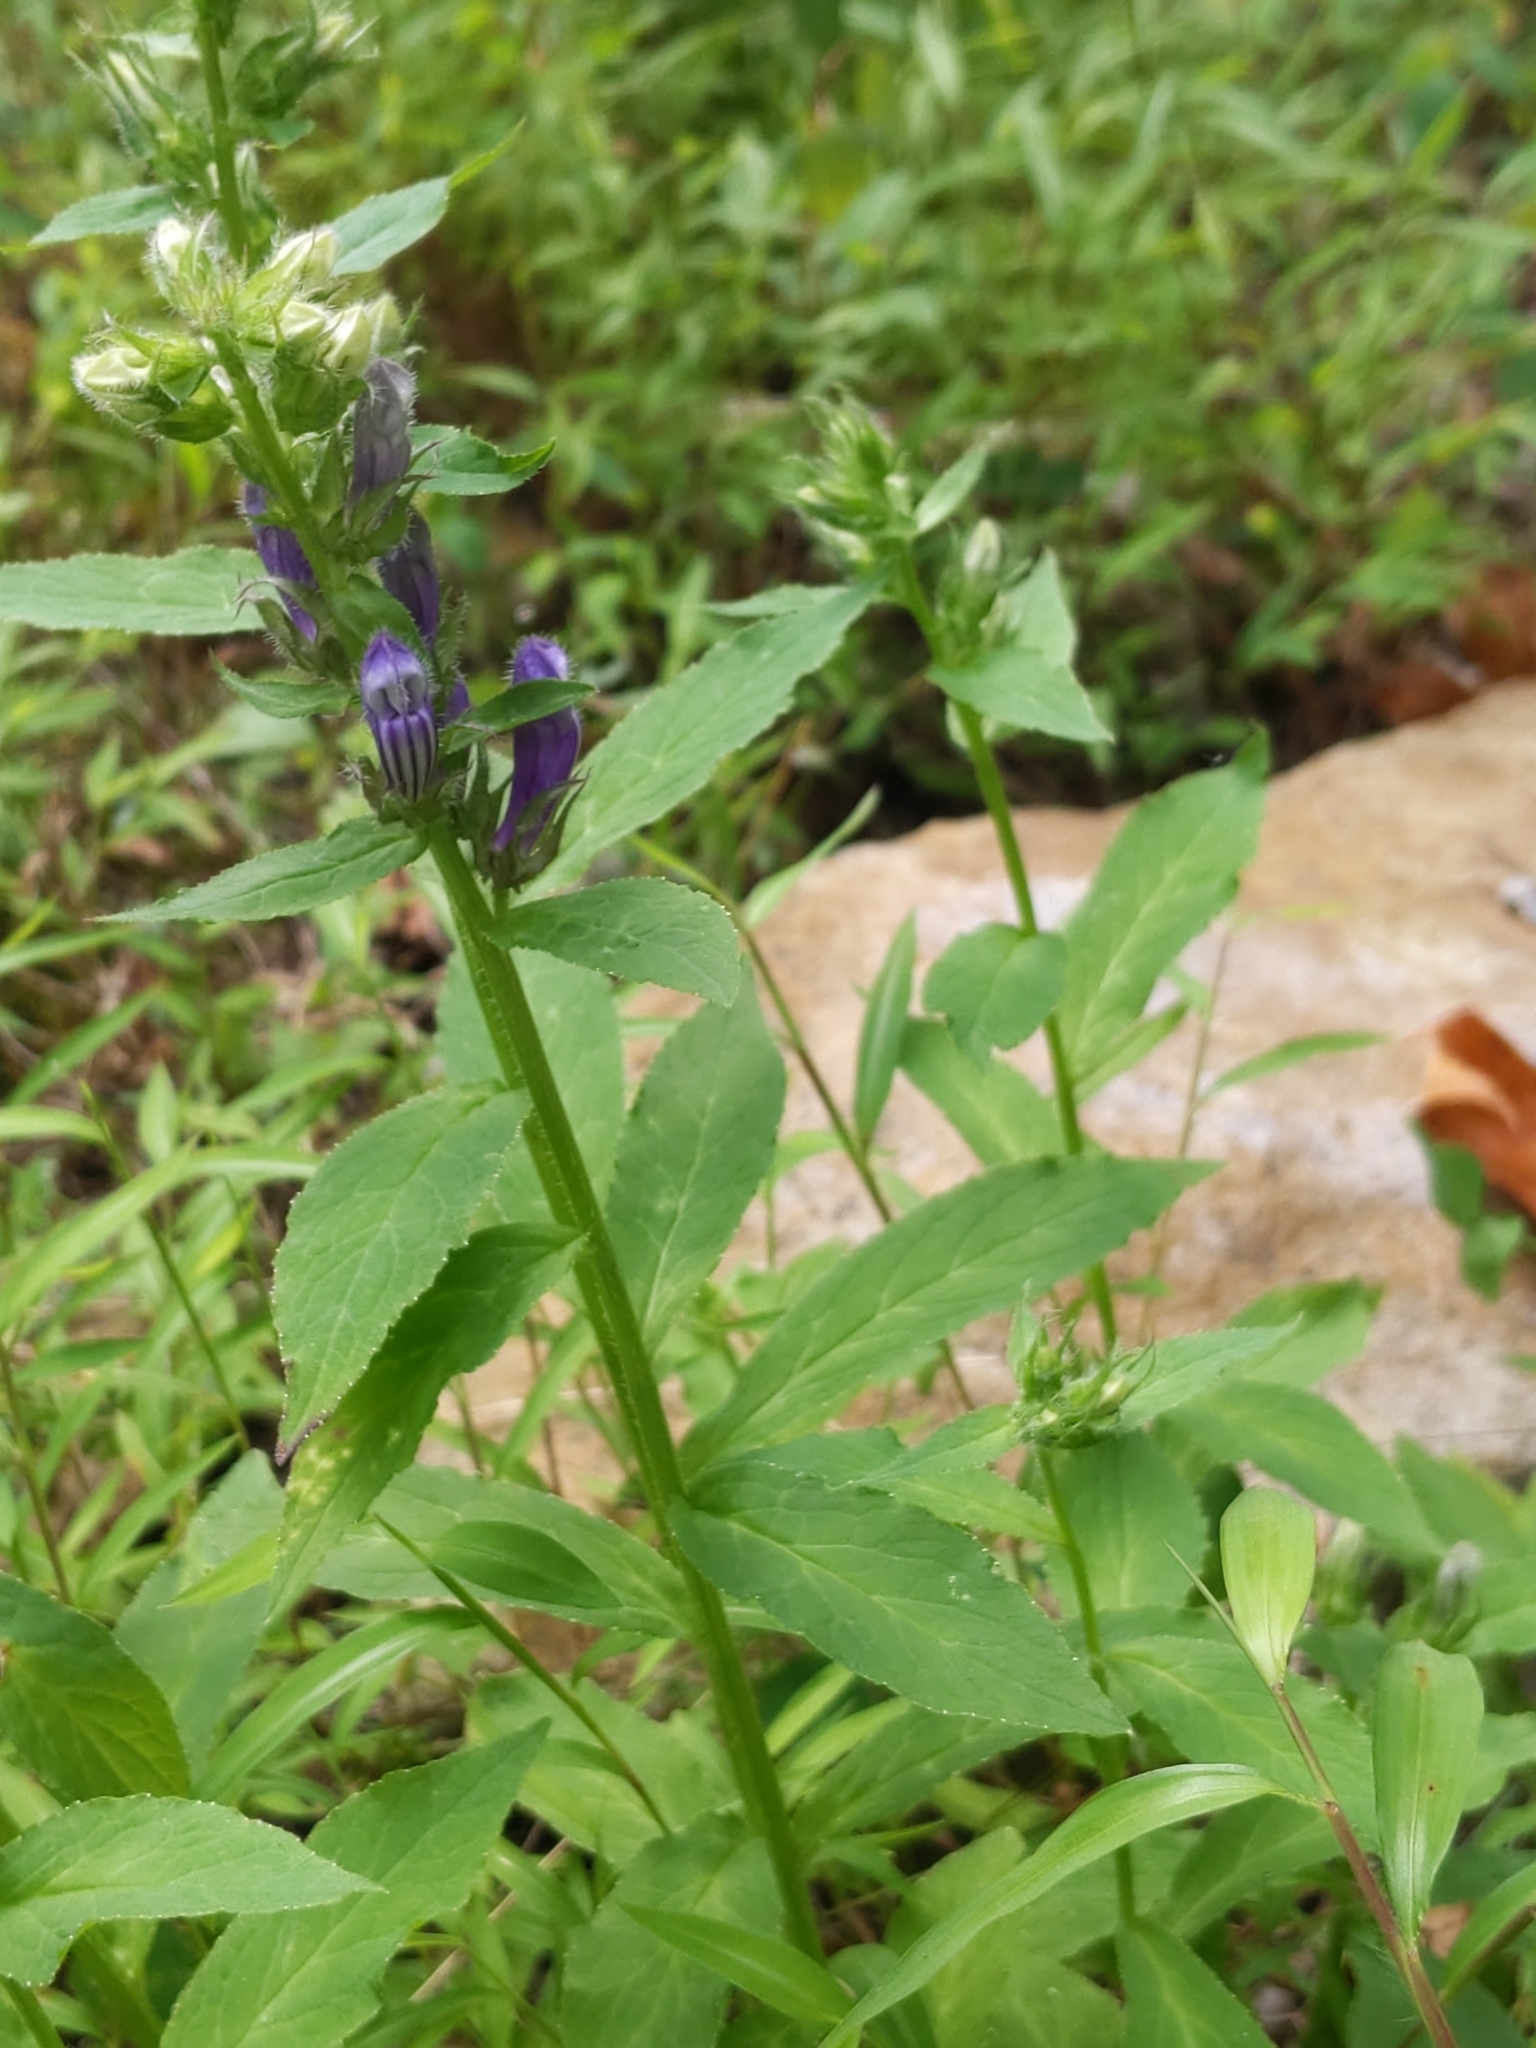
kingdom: Plantae
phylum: Tracheophyta
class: Magnoliopsida
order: Asterales
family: Campanulaceae
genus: Lobelia
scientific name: Lobelia siphilitica
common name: Great lobelia
